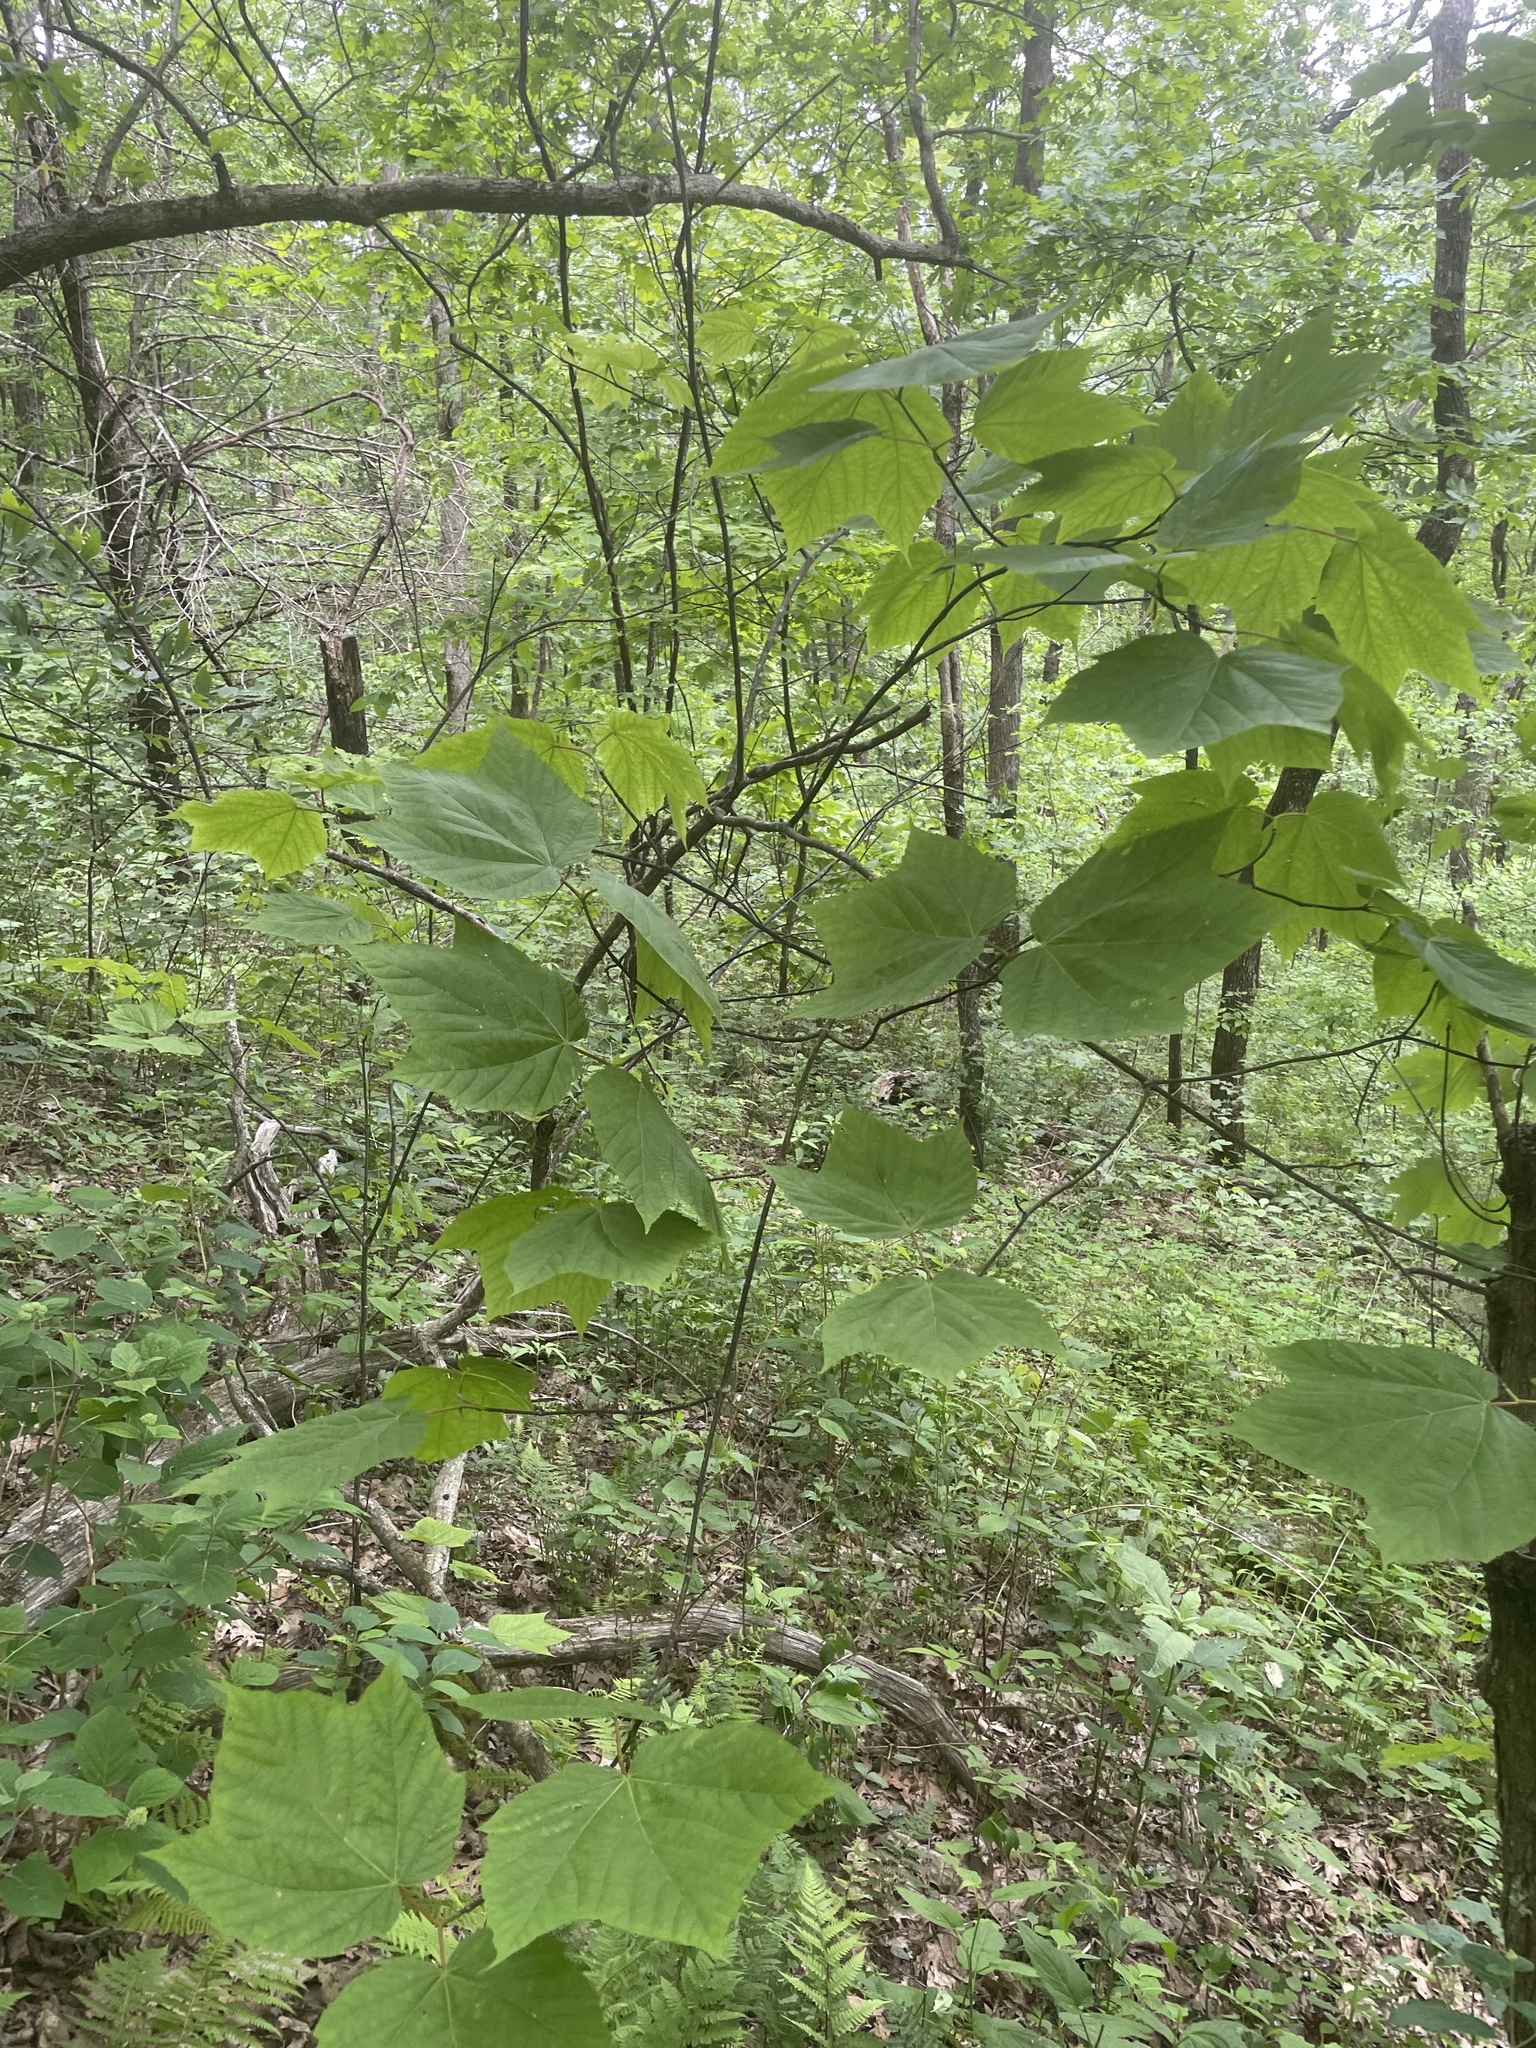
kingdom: Plantae
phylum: Tracheophyta
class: Magnoliopsida
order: Sapindales
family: Sapindaceae
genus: Acer
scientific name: Acer pensylvanicum
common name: Moosewood
